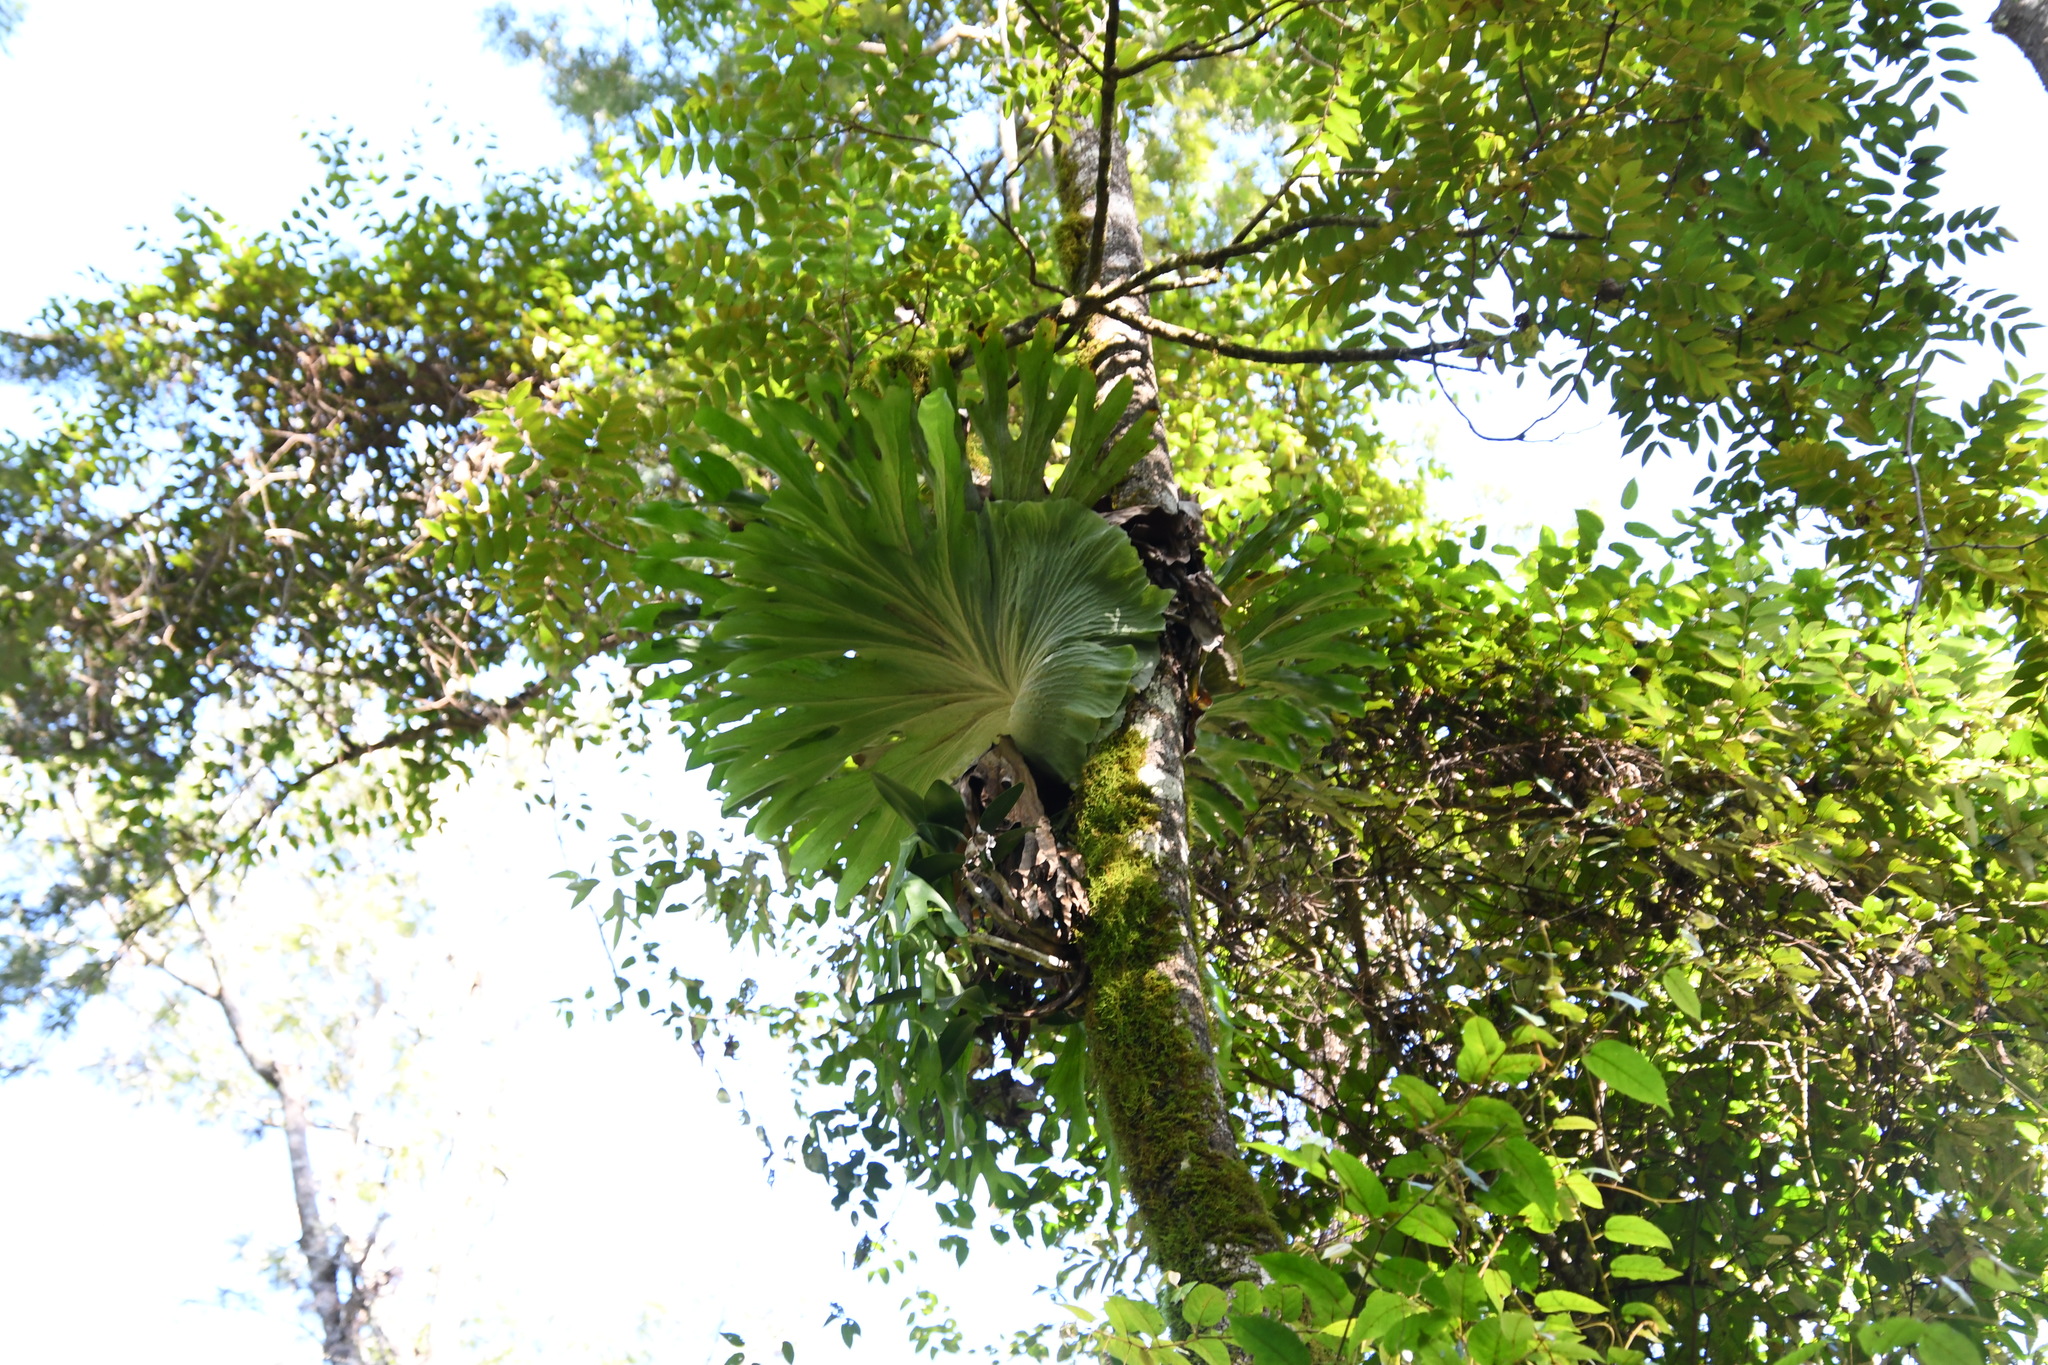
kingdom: Plantae
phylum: Tracheophyta
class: Polypodiopsida
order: Polypodiales
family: Polypodiaceae
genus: Platycerium
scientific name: Platycerium superbum
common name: Staghorn fern
